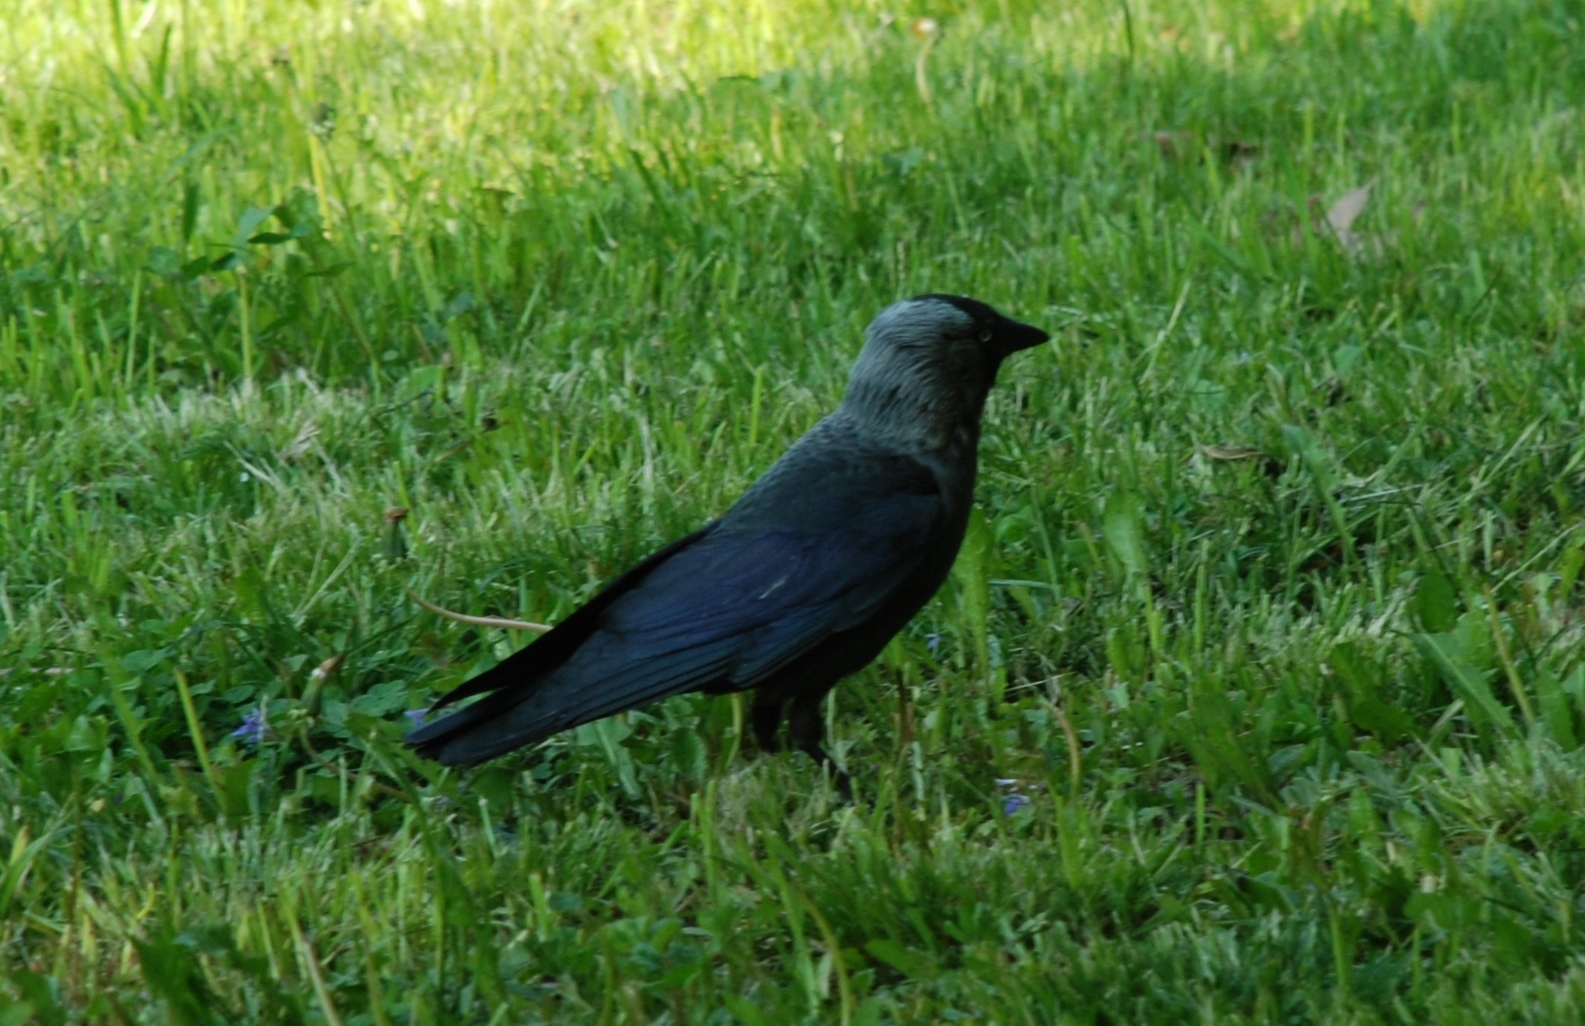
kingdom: Animalia
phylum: Chordata
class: Aves
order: Passeriformes
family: Corvidae
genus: Coloeus
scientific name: Coloeus monedula
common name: Western jackdaw
